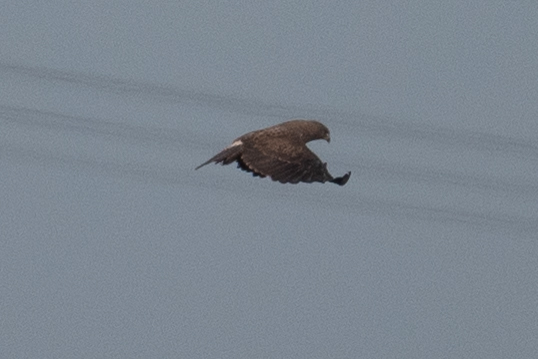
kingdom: Animalia
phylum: Chordata
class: Aves
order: Accipitriformes
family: Accipitridae
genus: Buteo
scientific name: Buteo swainsoni
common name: Swainson's hawk
